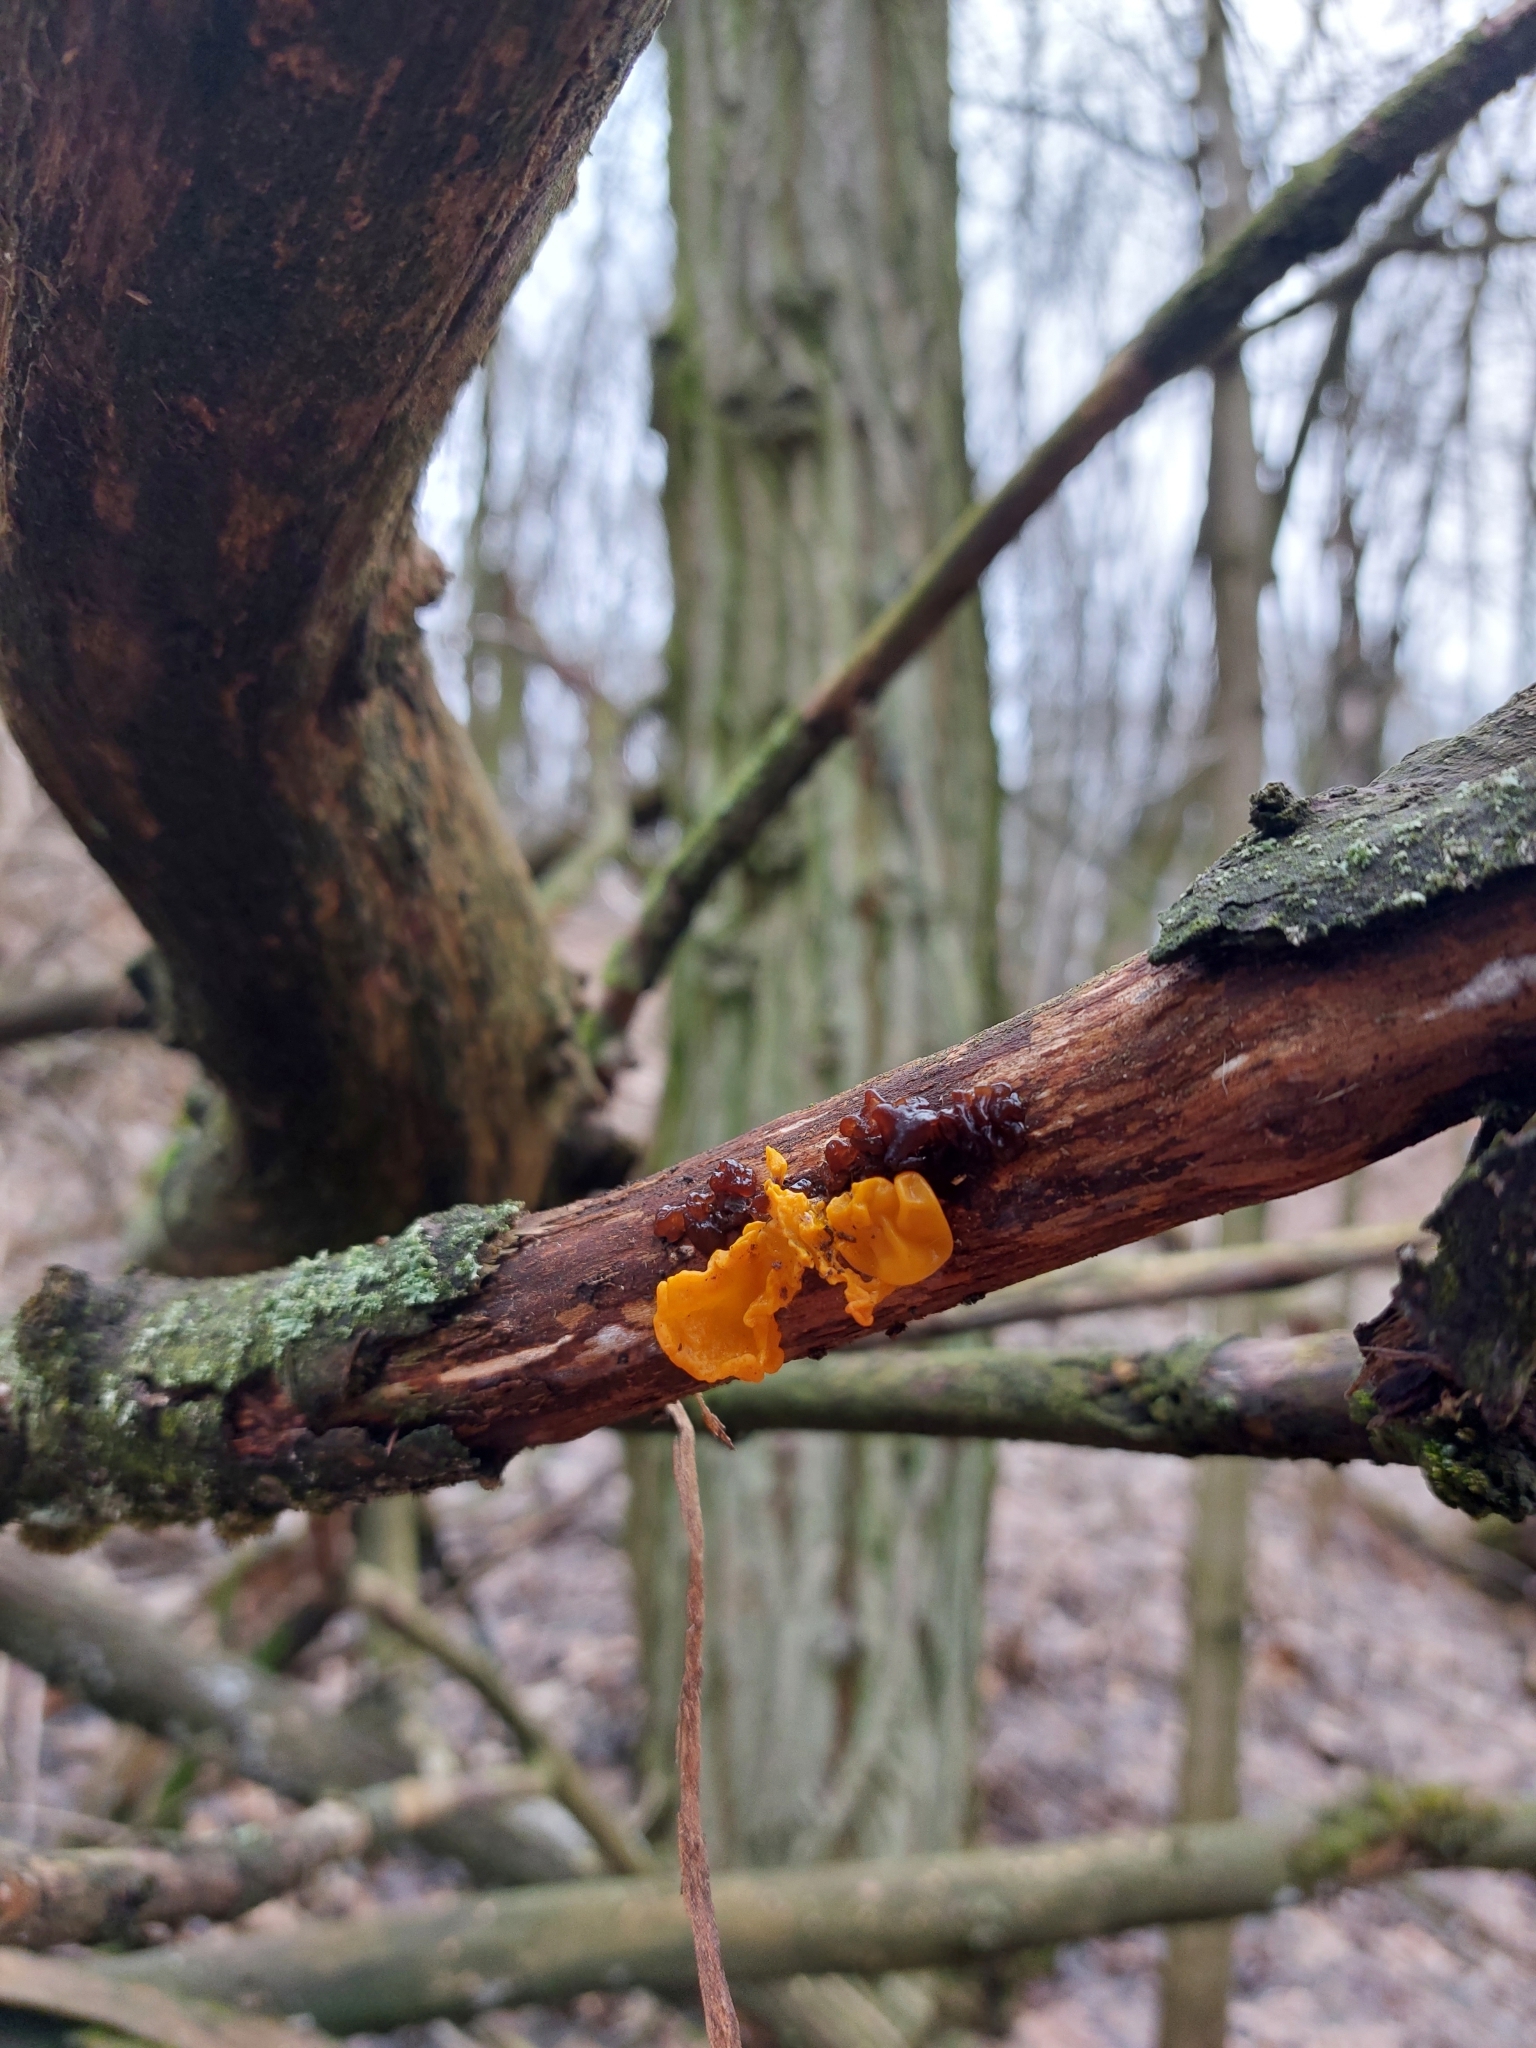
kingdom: Fungi
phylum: Basidiomycota
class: Tremellomycetes
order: Tremellales
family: Tremellaceae
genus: Tremella
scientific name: Tremella mesenterica
